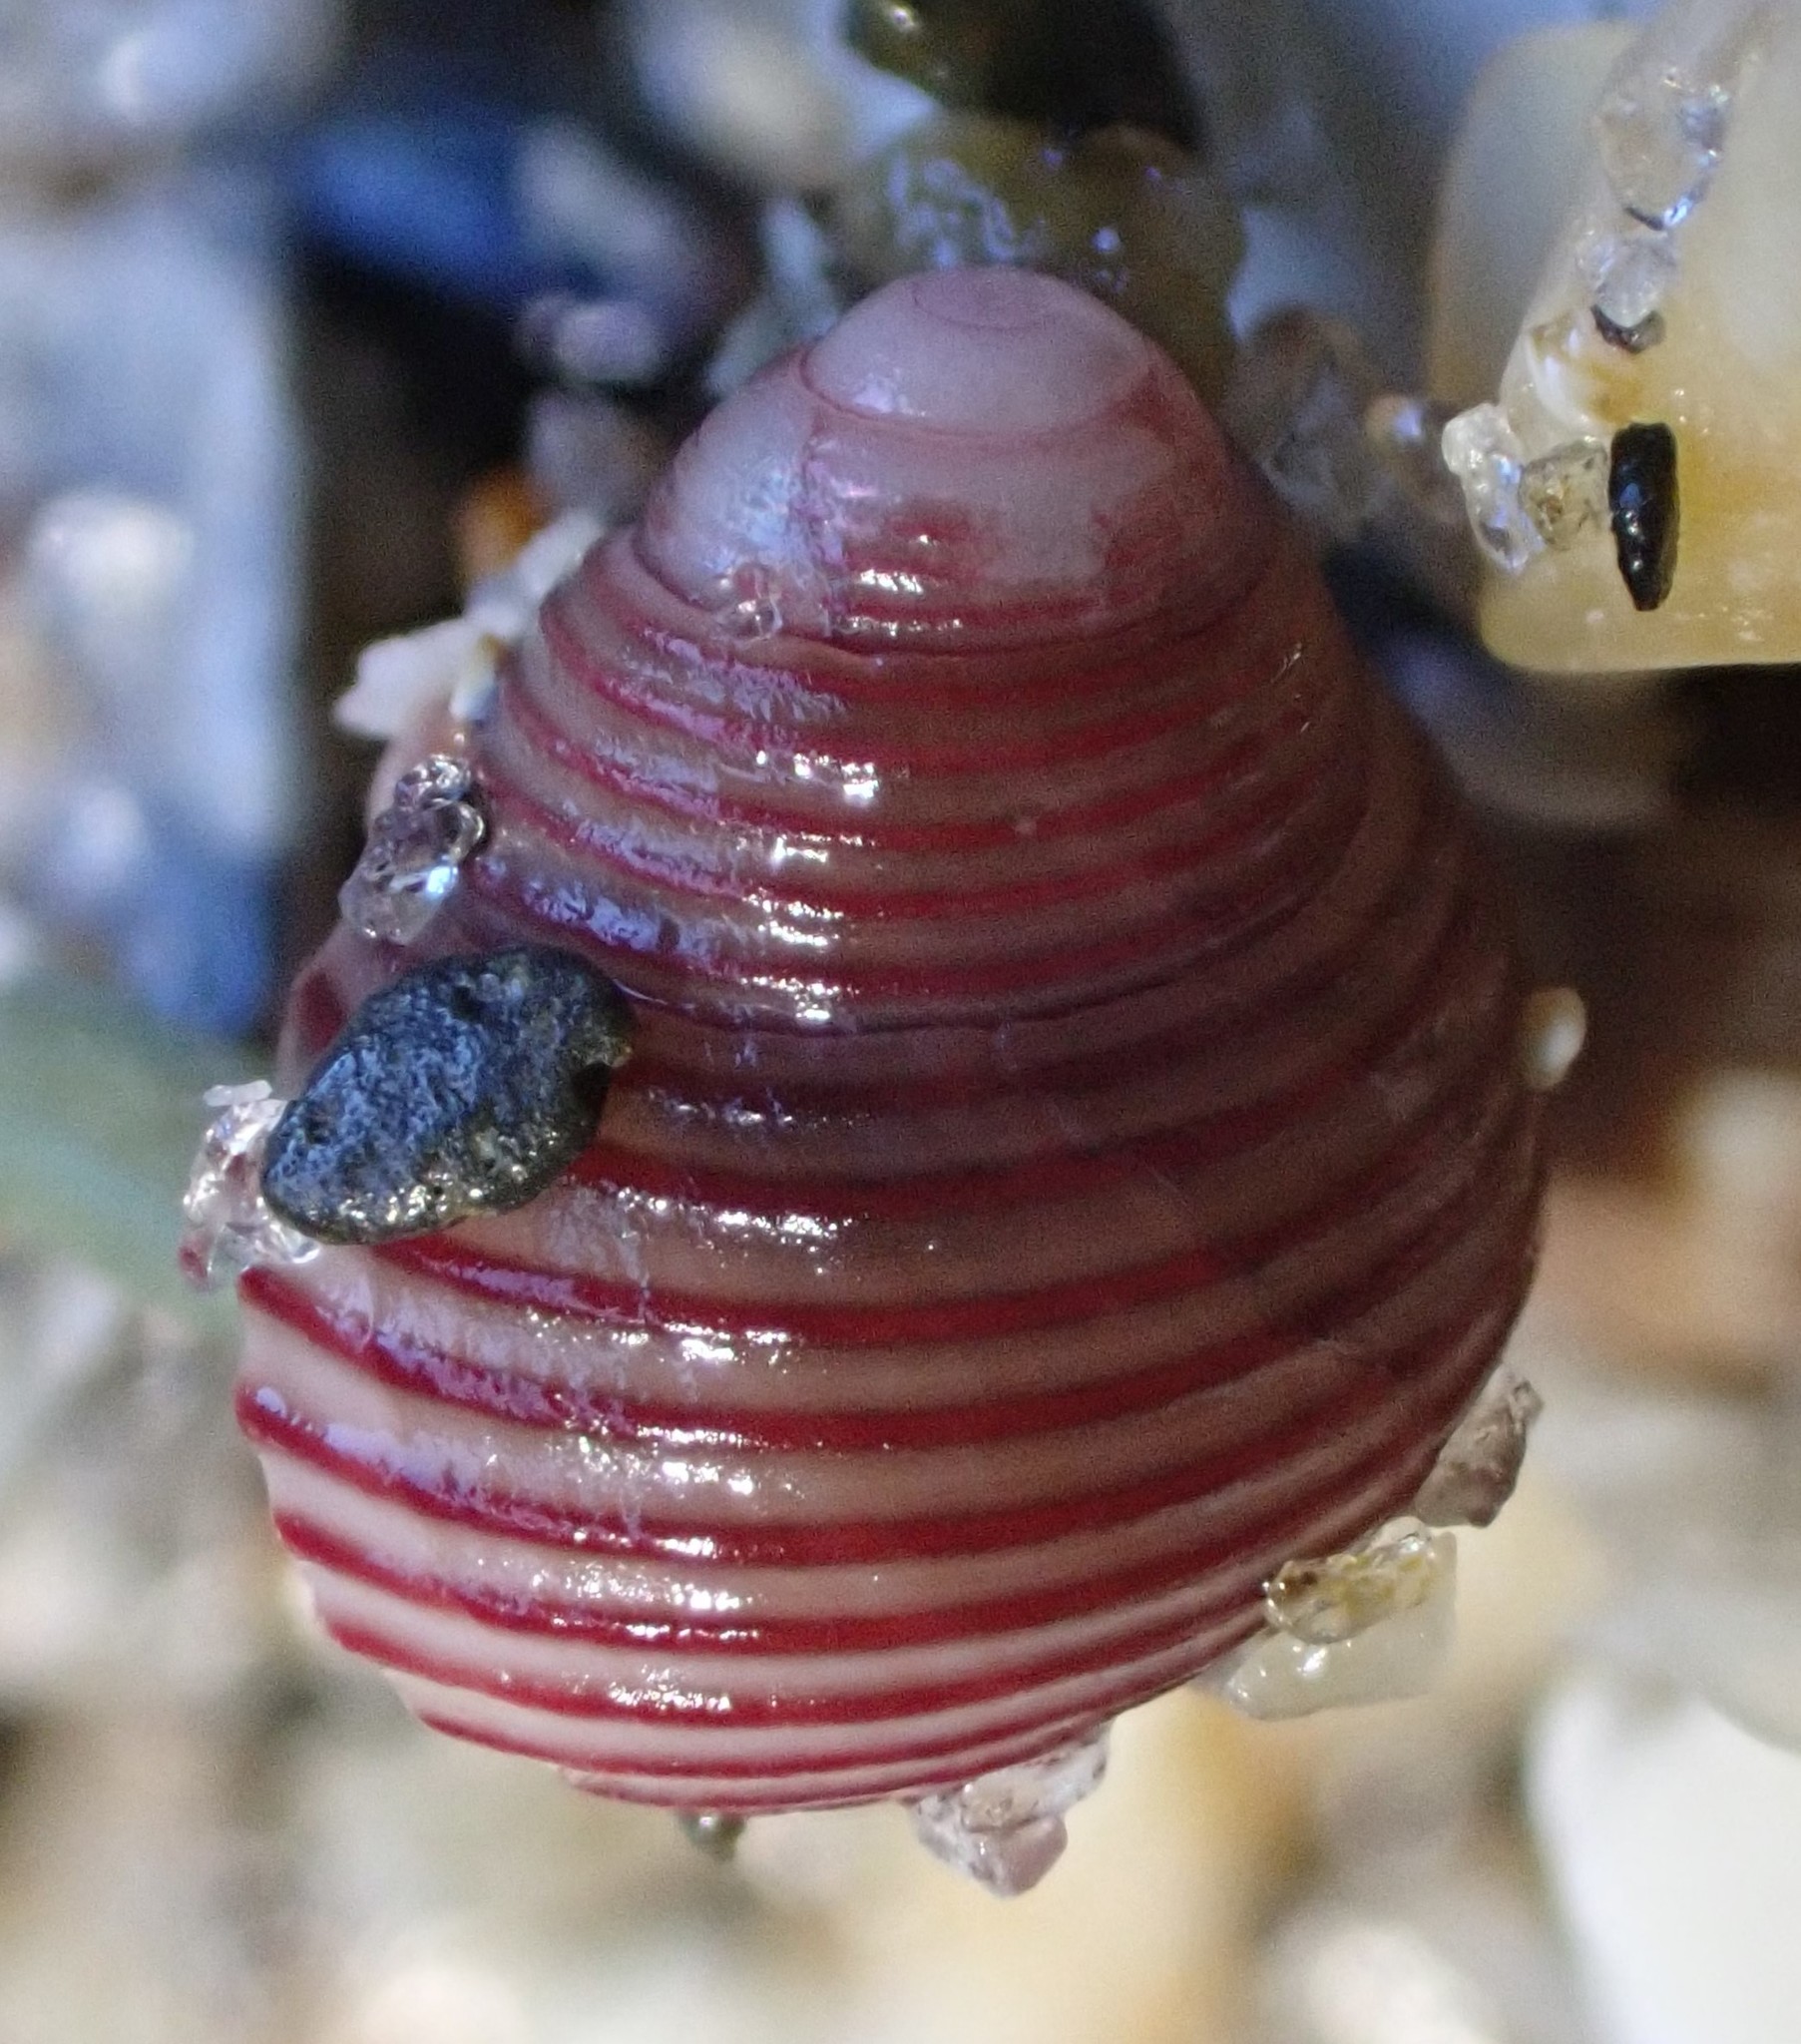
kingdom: Animalia
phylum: Mollusca
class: Gastropoda
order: Trochida
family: Trochidae
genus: Roseaplagis
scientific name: Roseaplagis rufozona
